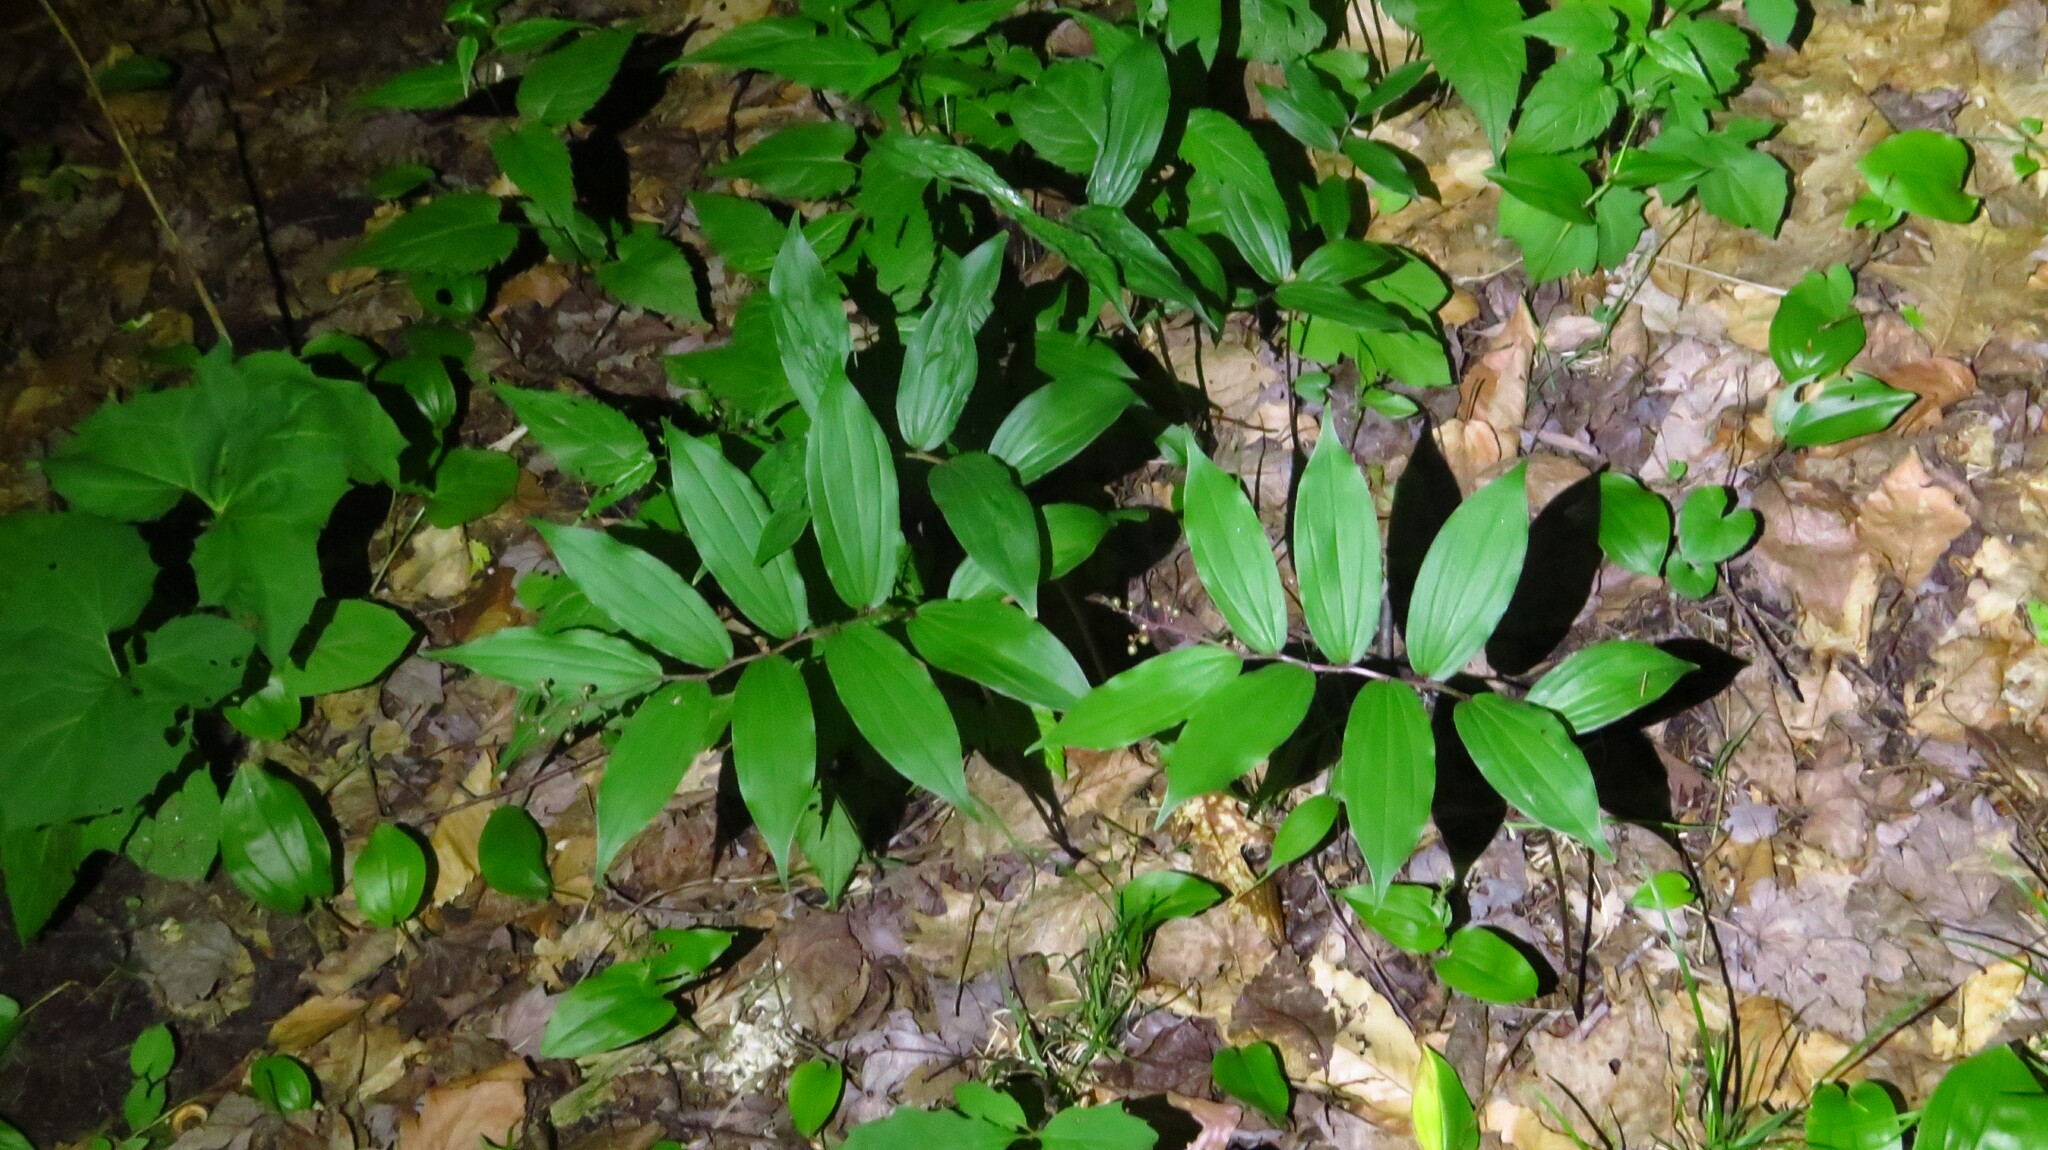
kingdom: Plantae
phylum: Tracheophyta
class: Liliopsida
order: Asparagales
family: Asparagaceae
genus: Maianthemum
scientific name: Maianthemum racemosum
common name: False spikenard
